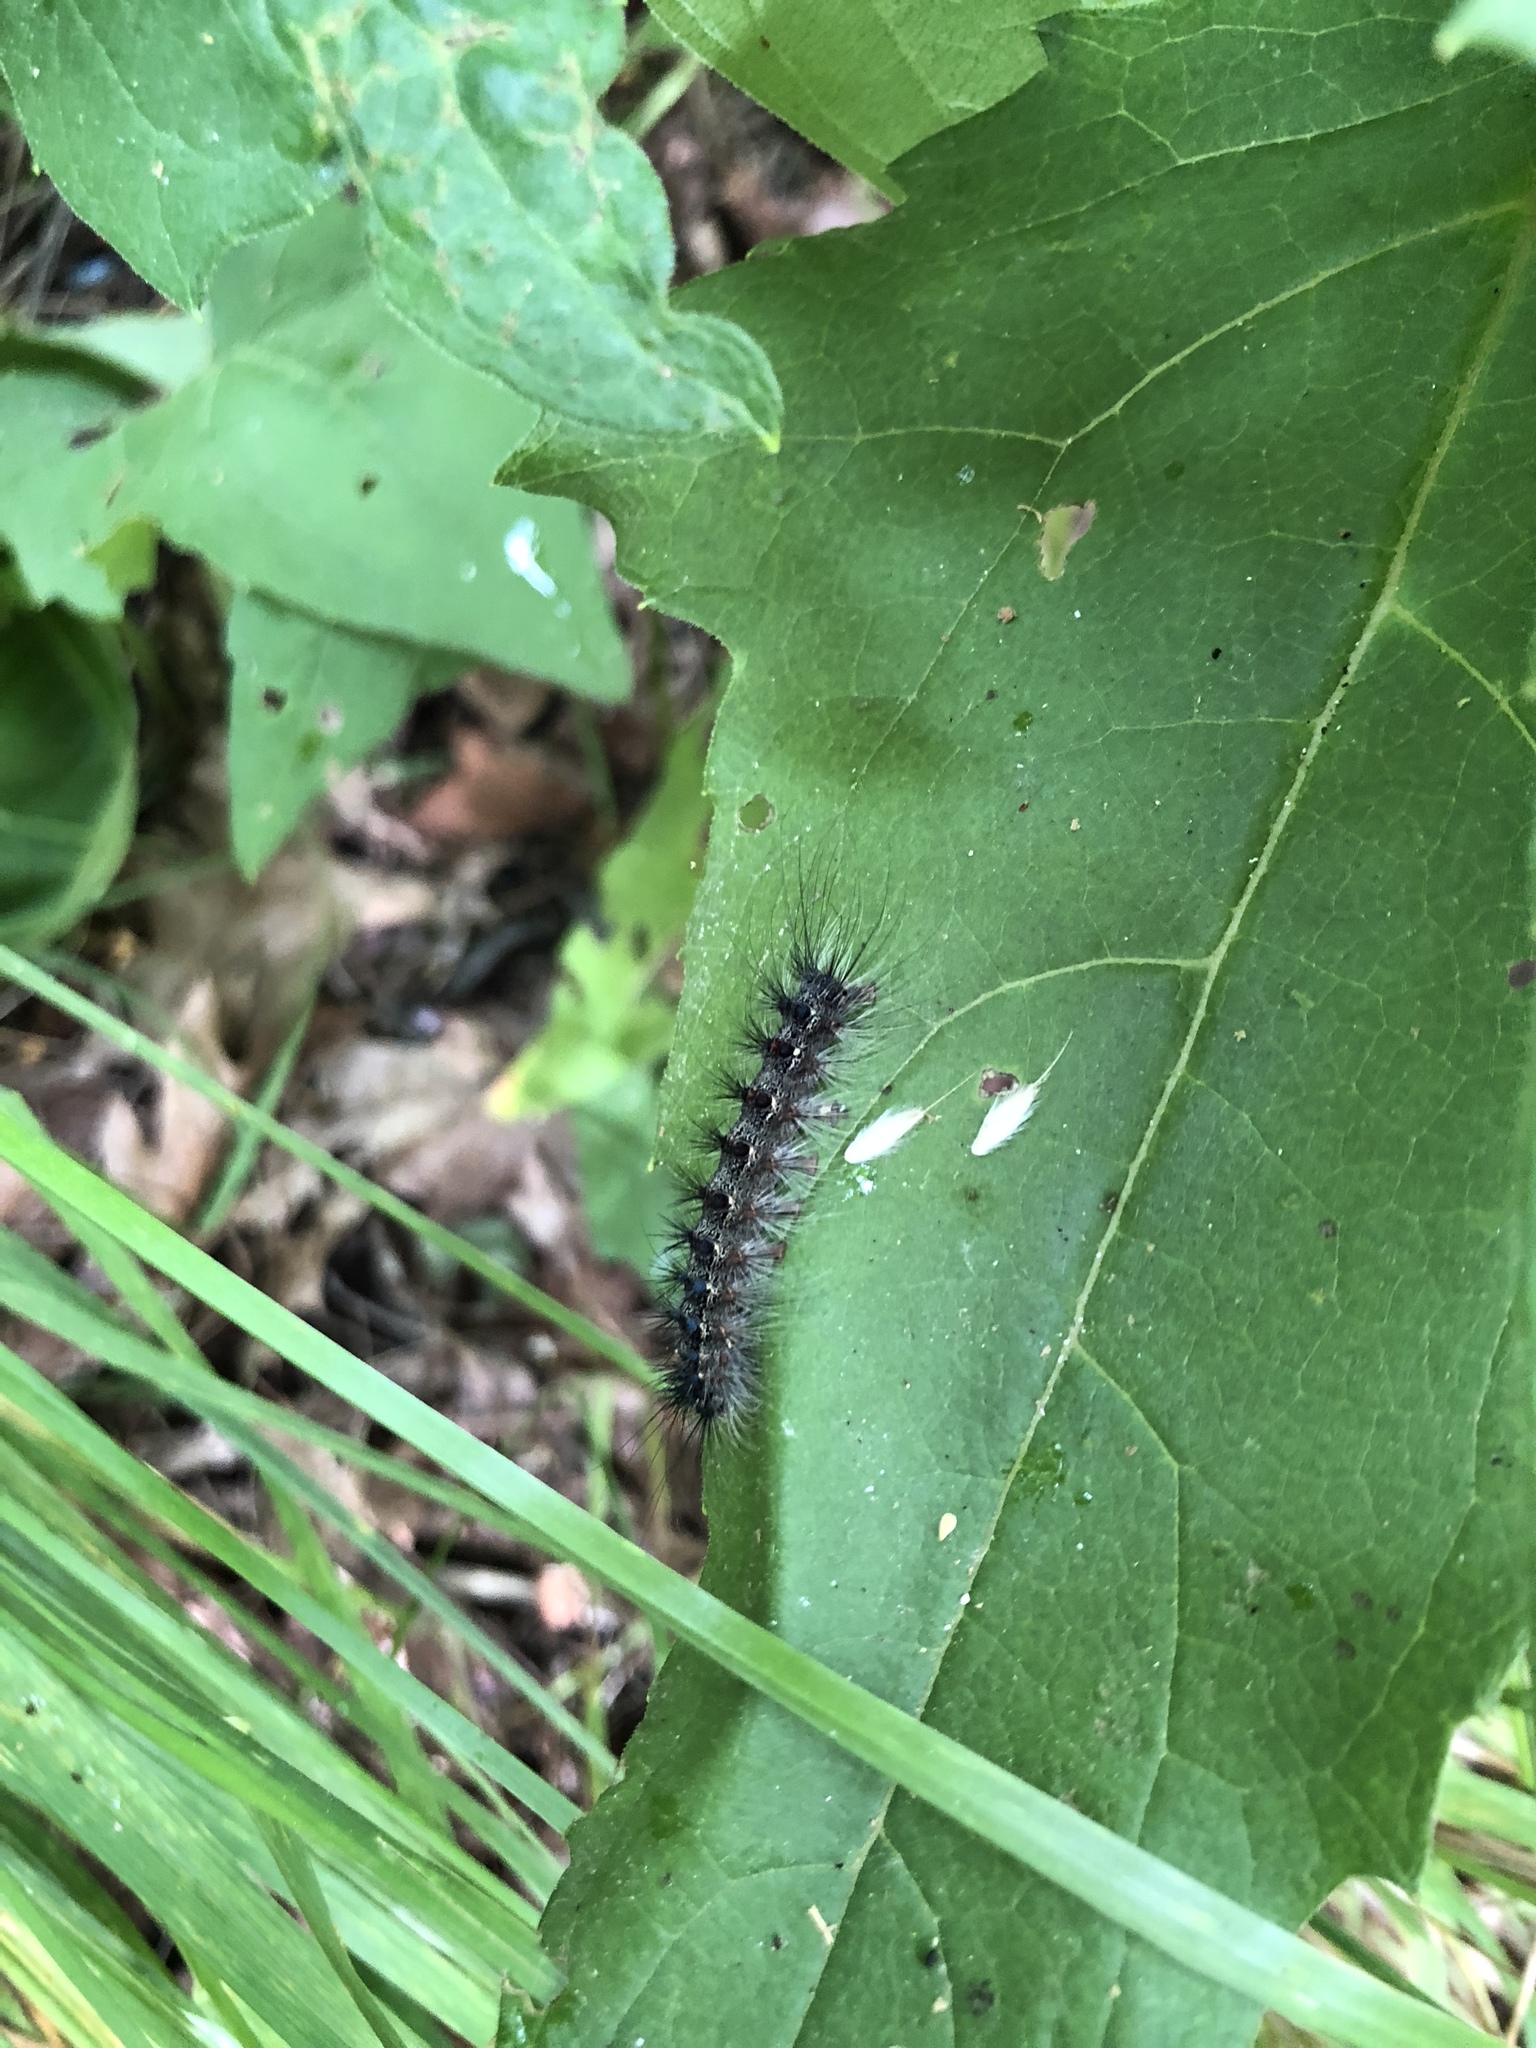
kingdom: Animalia
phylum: Arthropoda
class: Insecta
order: Lepidoptera
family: Erebidae
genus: Lymantria
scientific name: Lymantria dispar
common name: Gypsy moth
